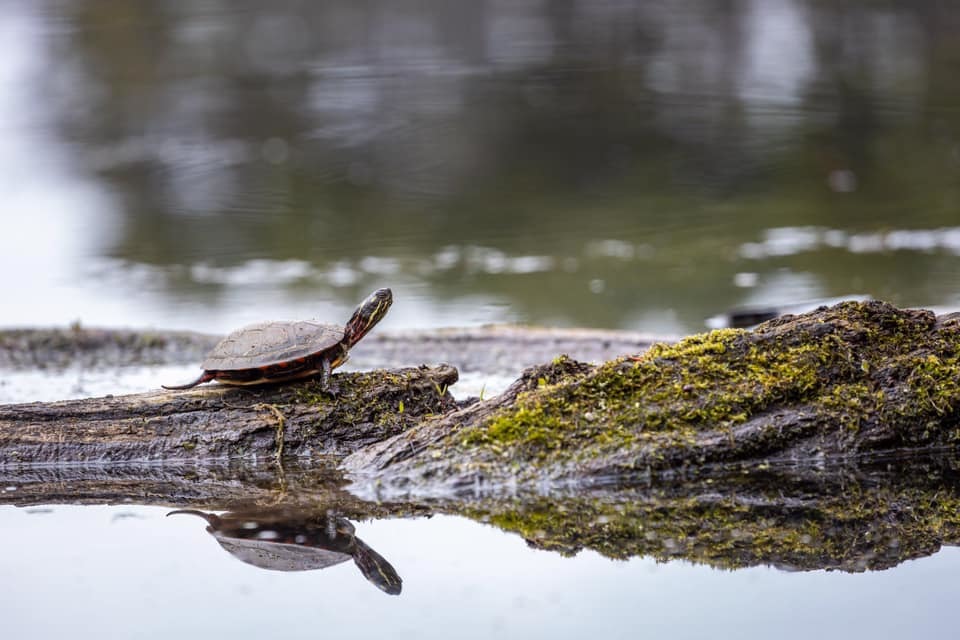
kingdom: Animalia
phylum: Chordata
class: Testudines
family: Emydidae
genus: Chrysemys
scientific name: Chrysemys picta
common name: Painted turtle
